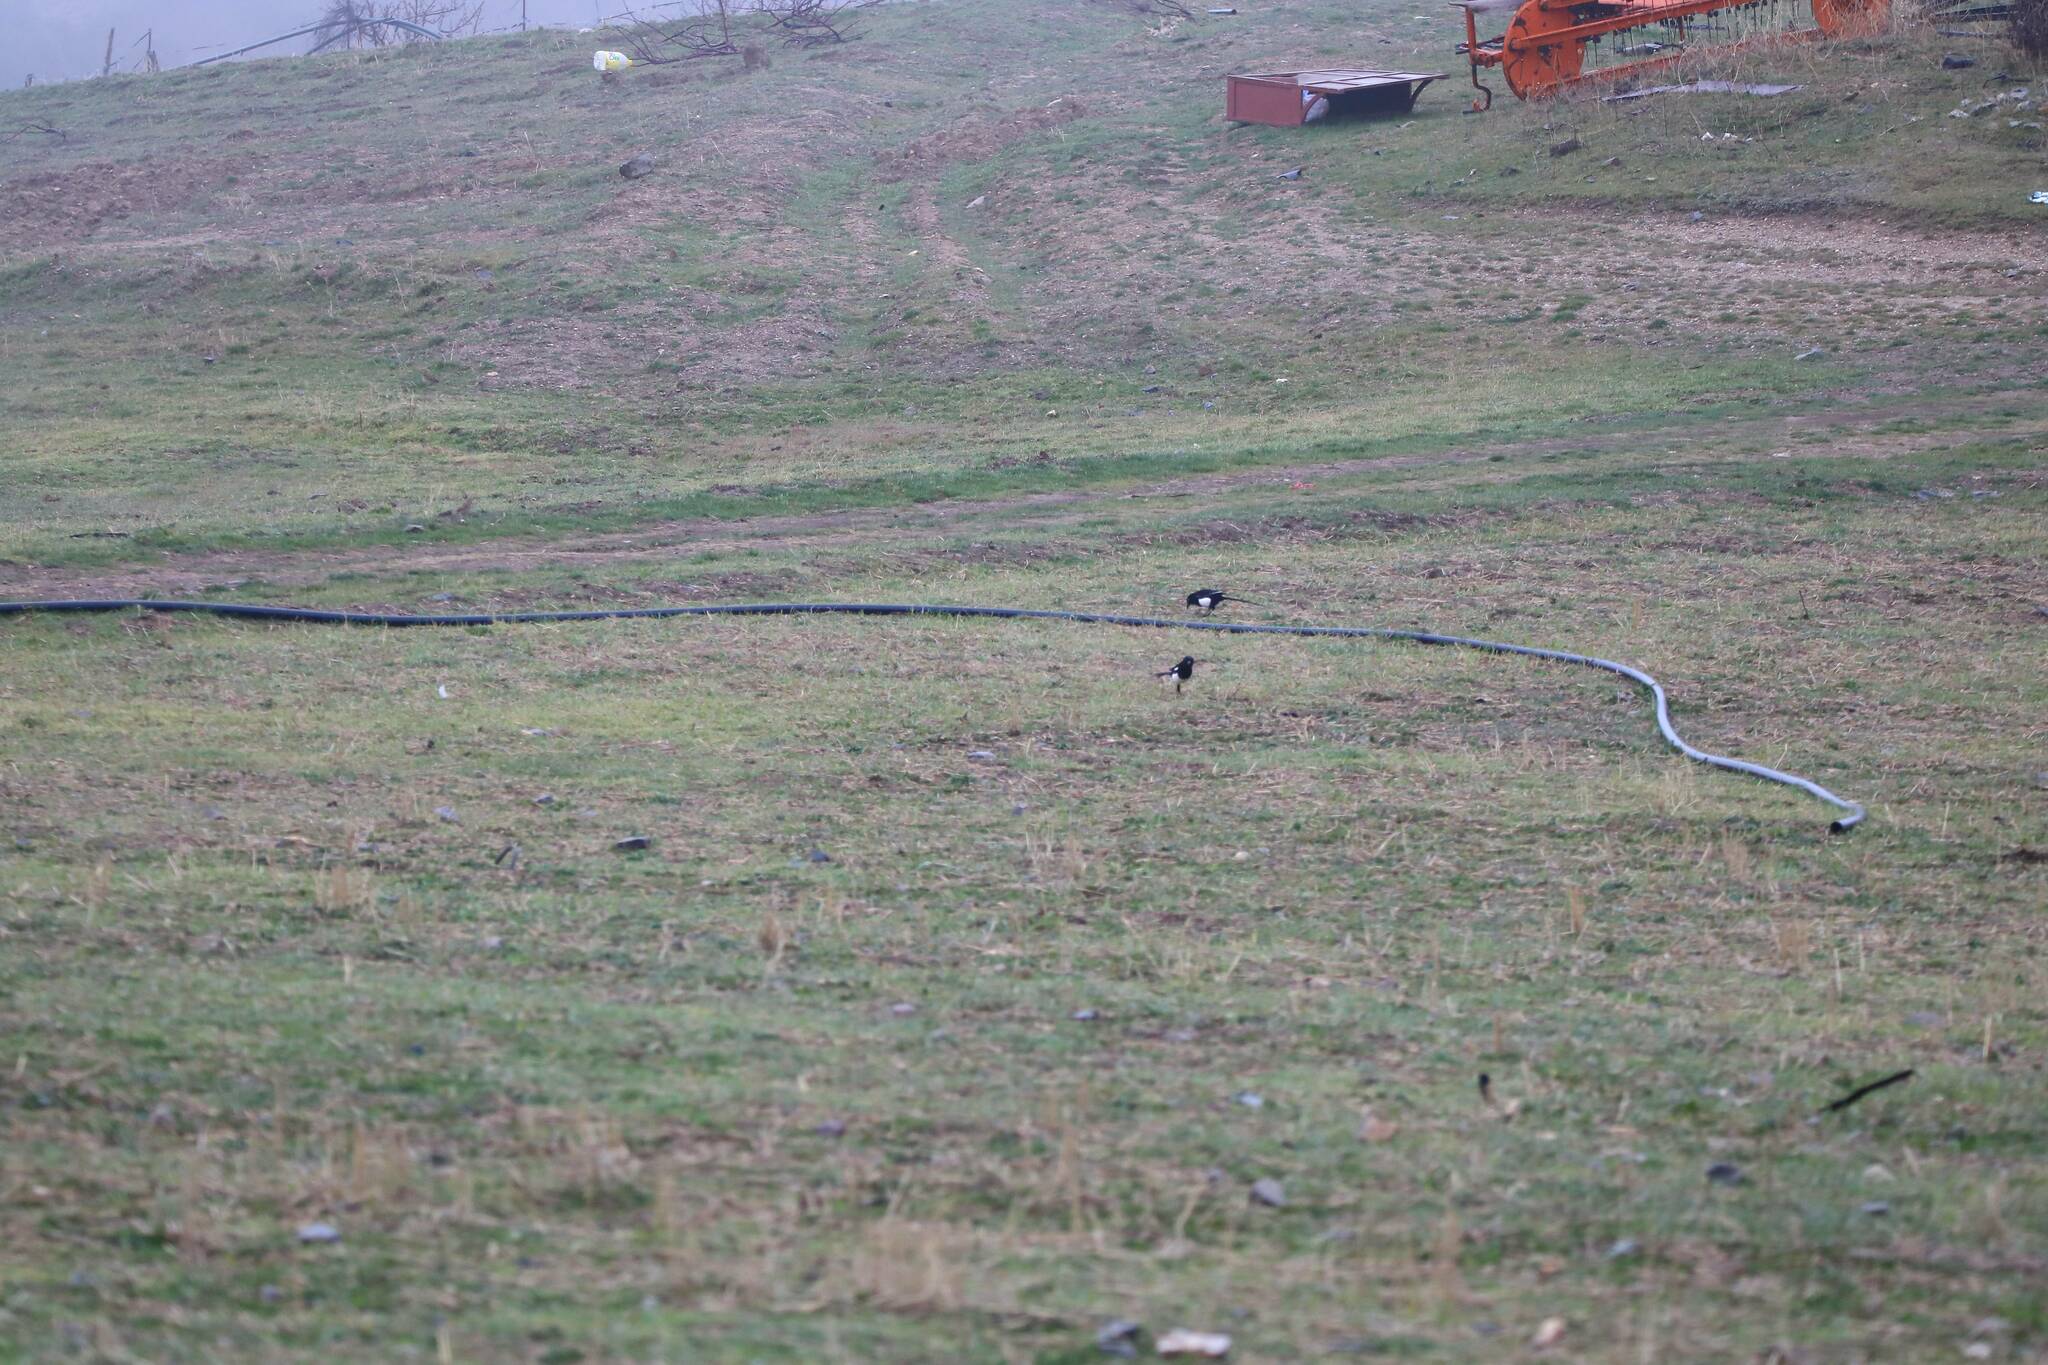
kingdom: Animalia
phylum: Chordata
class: Aves
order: Passeriformes
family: Corvidae
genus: Pica
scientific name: Pica mauritanica
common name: Maghreb magpie
